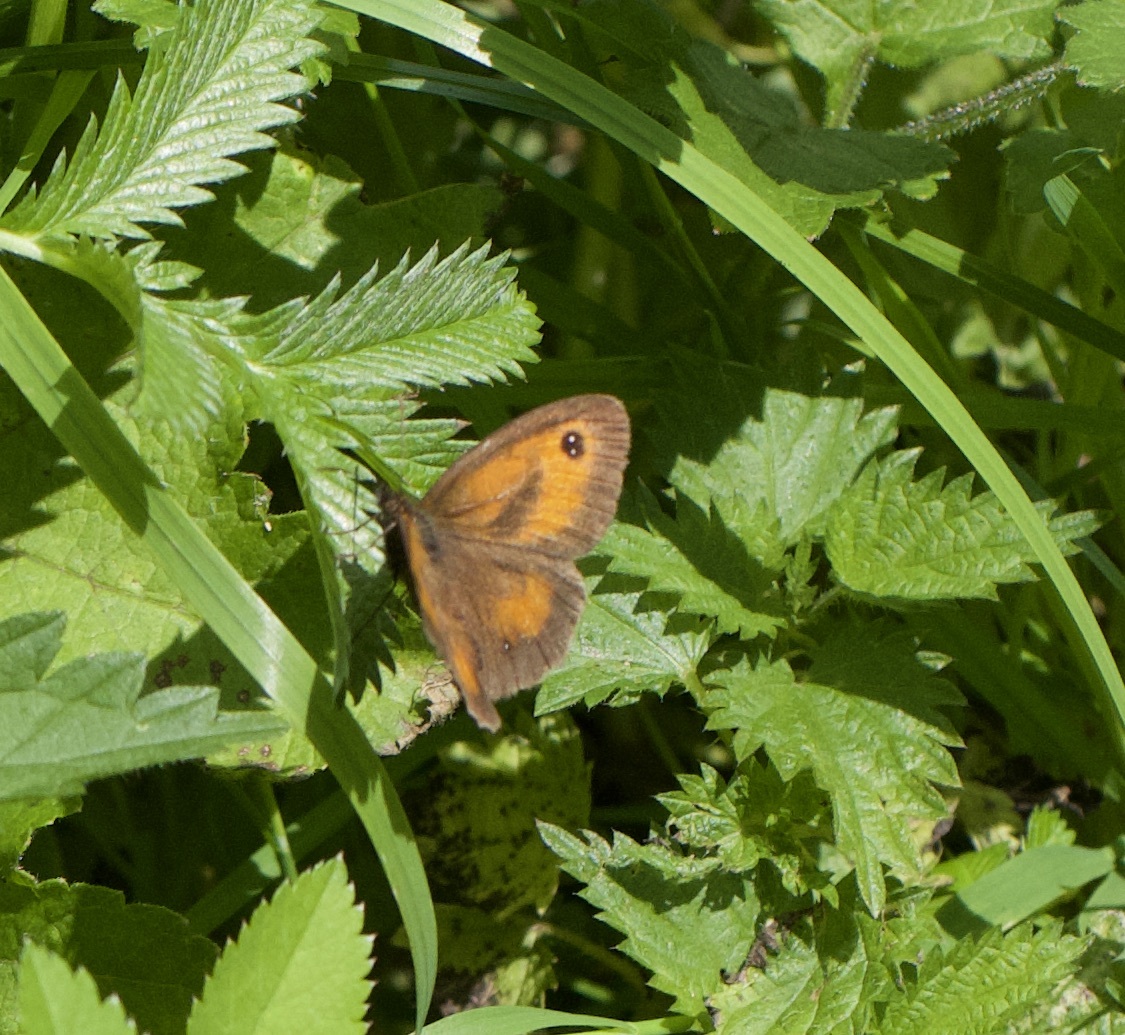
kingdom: Animalia
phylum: Arthropoda
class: Insecta
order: Lepidoptera
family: Nymphalidae
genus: Pyronia
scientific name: Pyronia tithonus
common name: Gatekeeper
